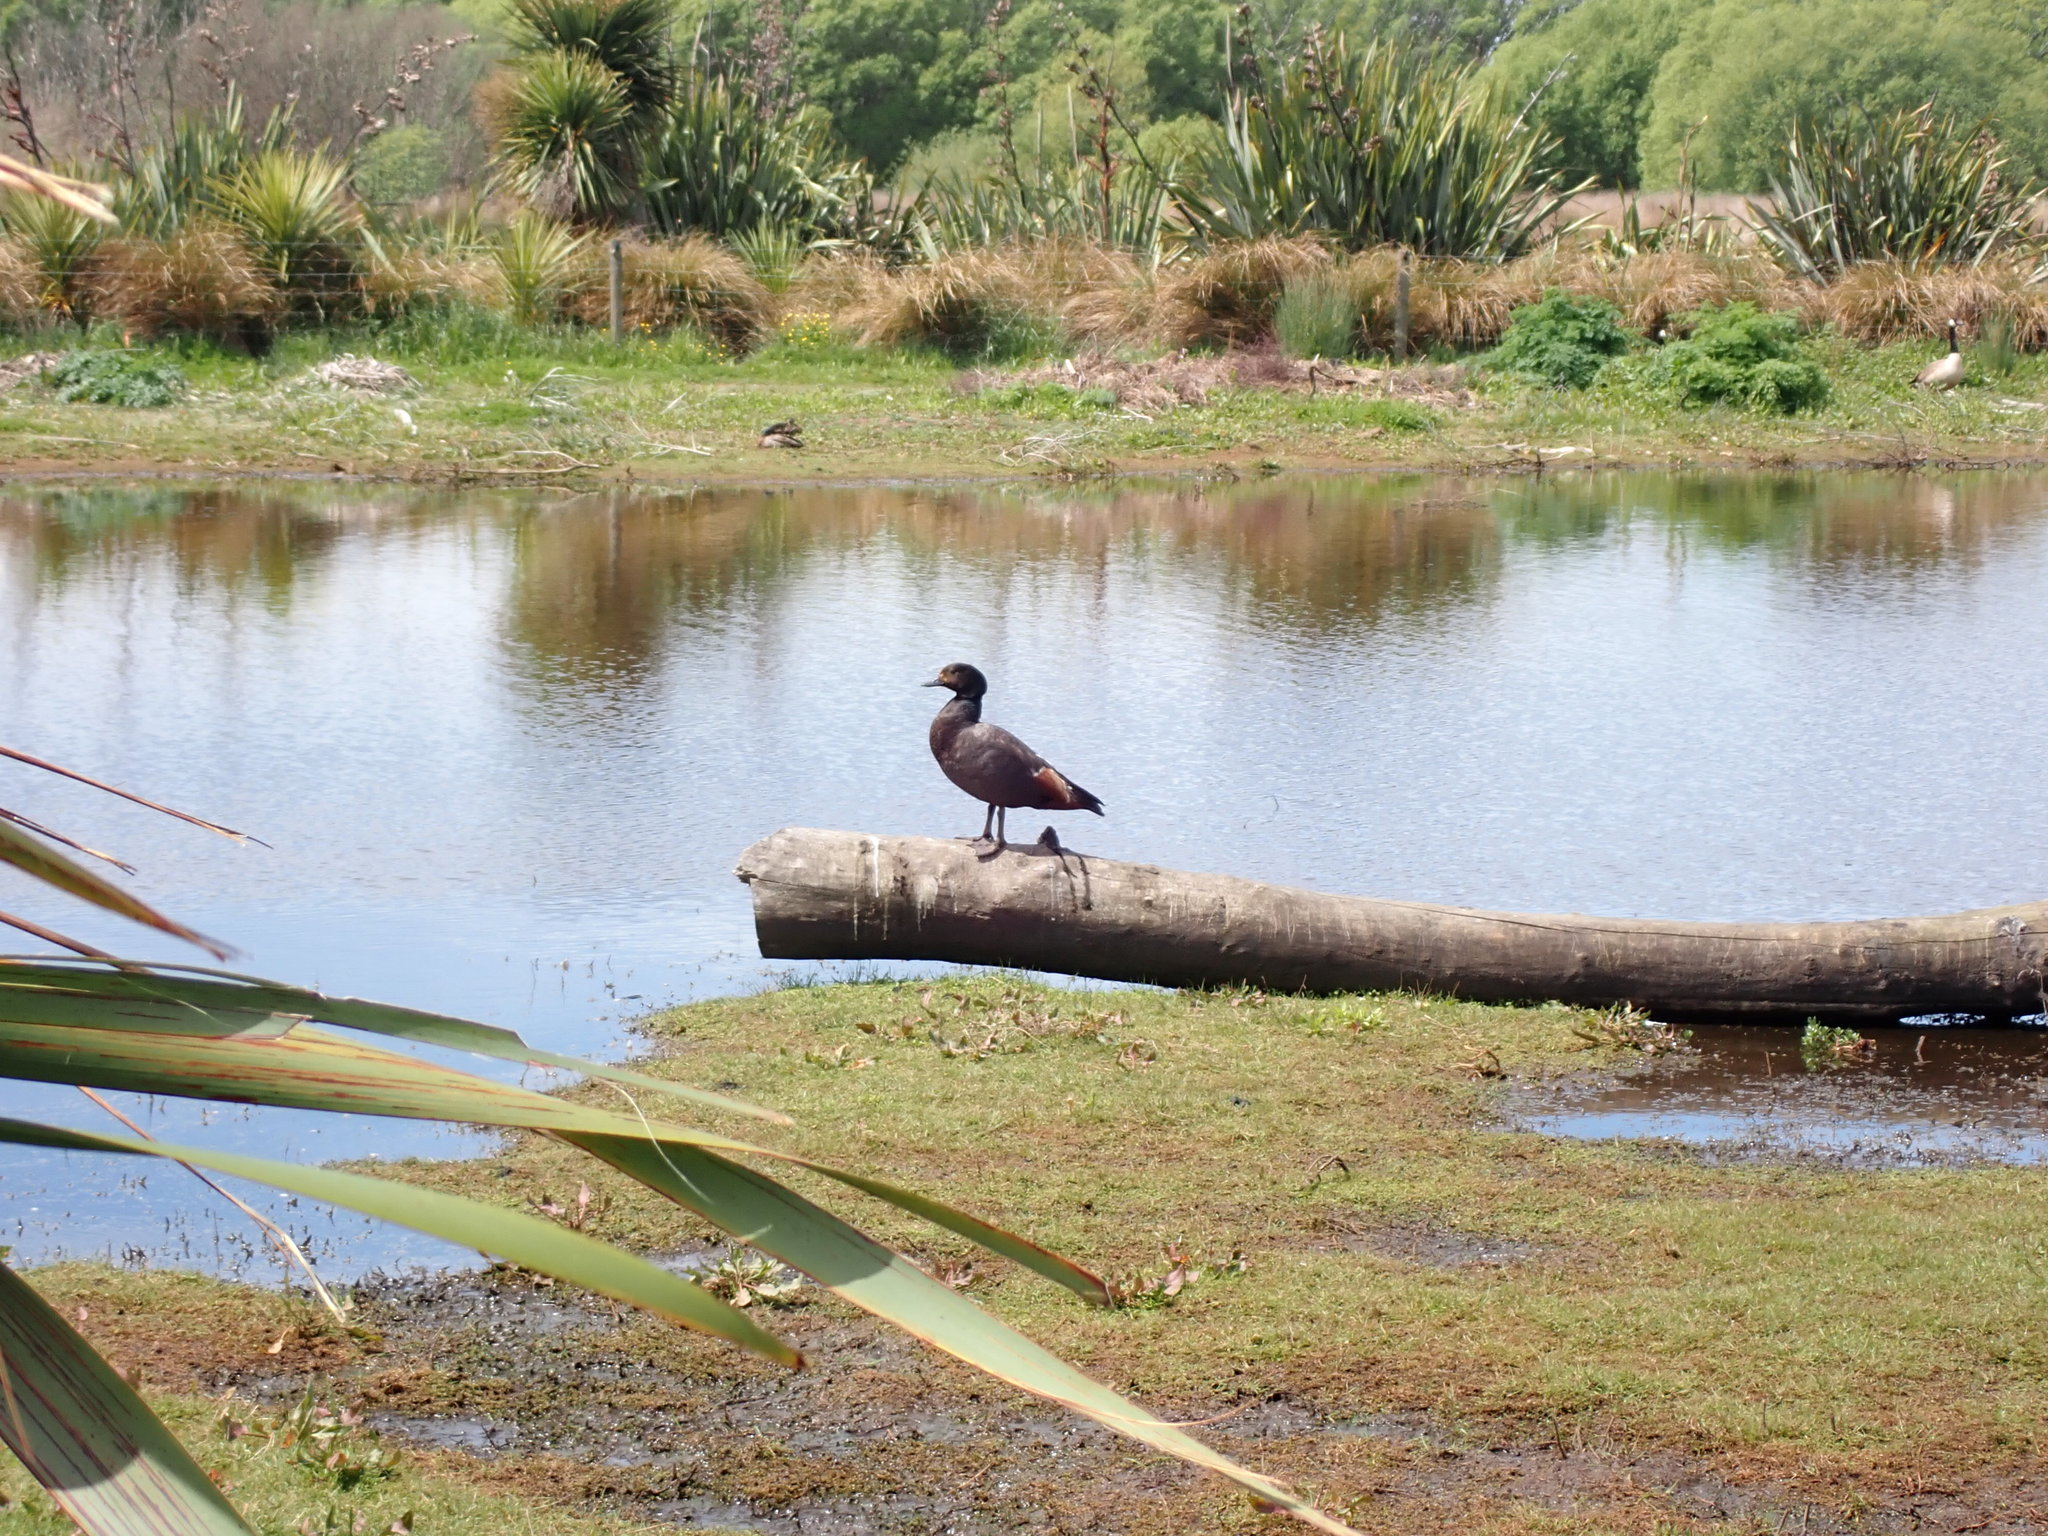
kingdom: Animalia
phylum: Chordata
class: Aves
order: Anseriformes
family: Anatidae
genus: Tadorna
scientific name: Tadorna variegata
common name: Paradise shelduck
